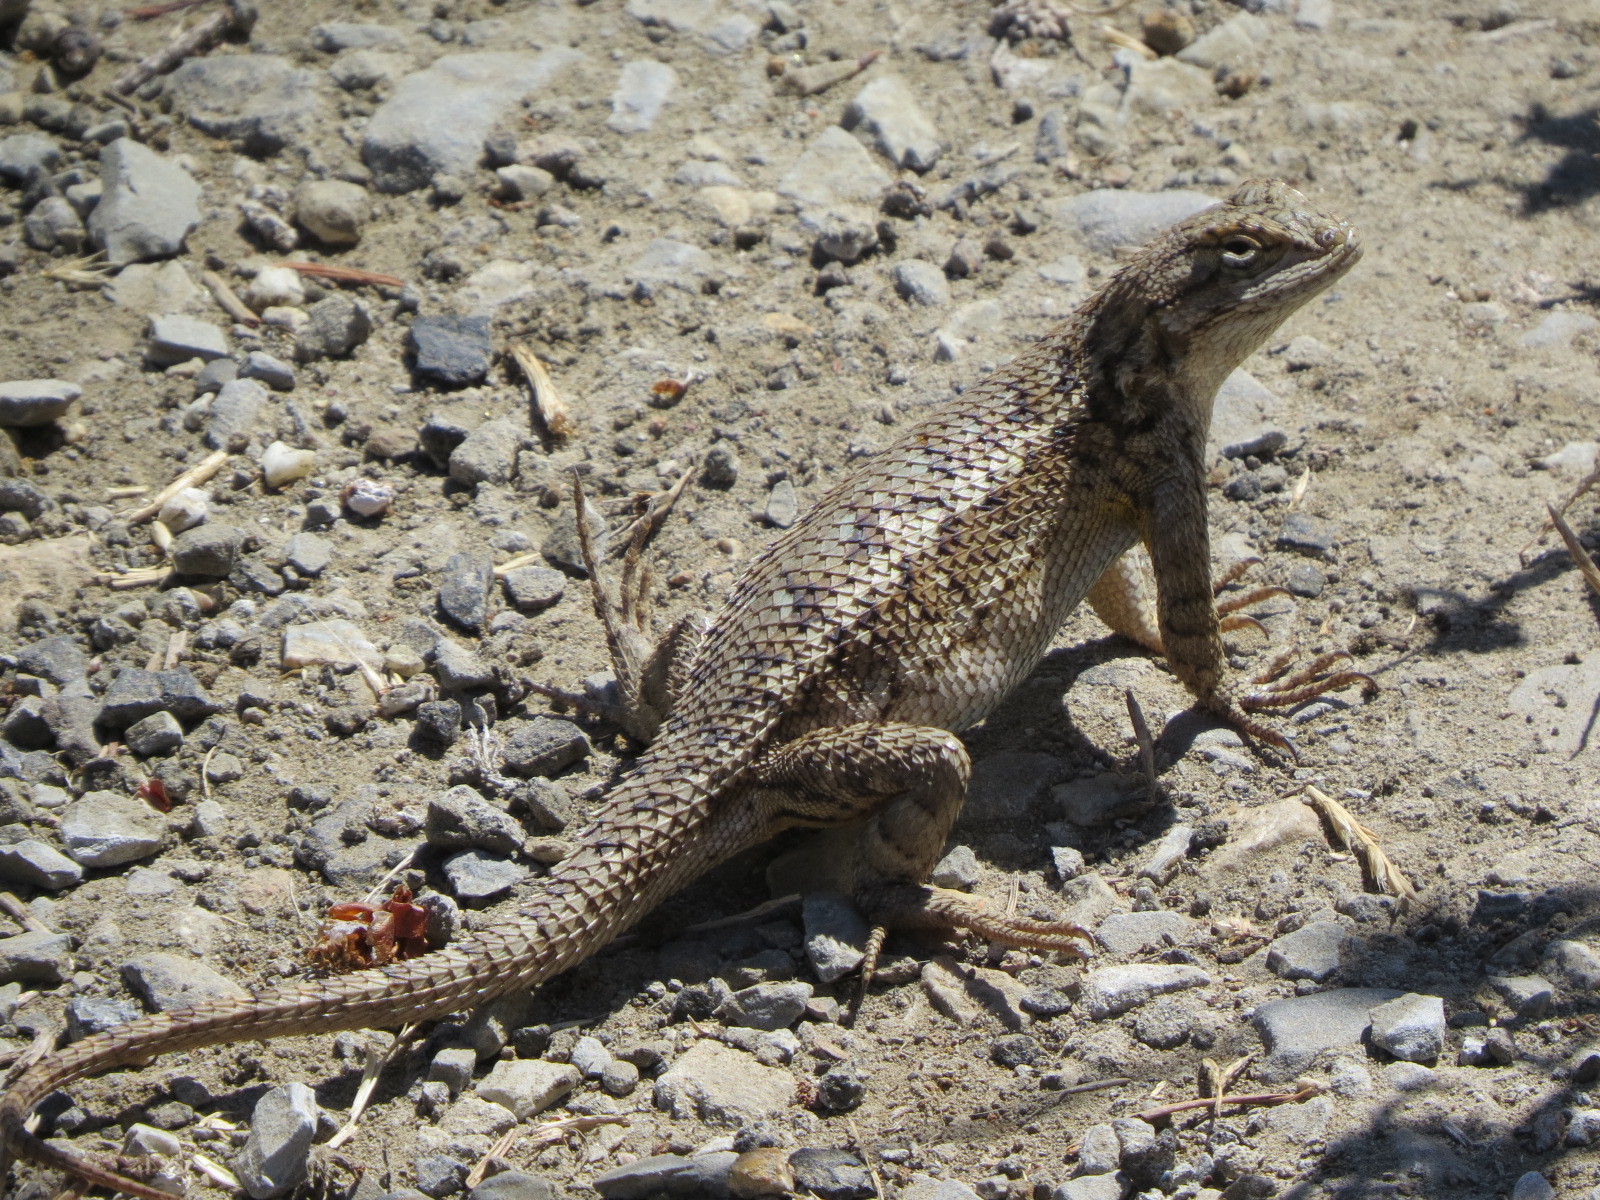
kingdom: Animalia
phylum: Chordata
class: Squamata
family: Phrynosomatidae
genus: Sceloporus
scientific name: Sceloporus occidentalis
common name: Western fence lizard
